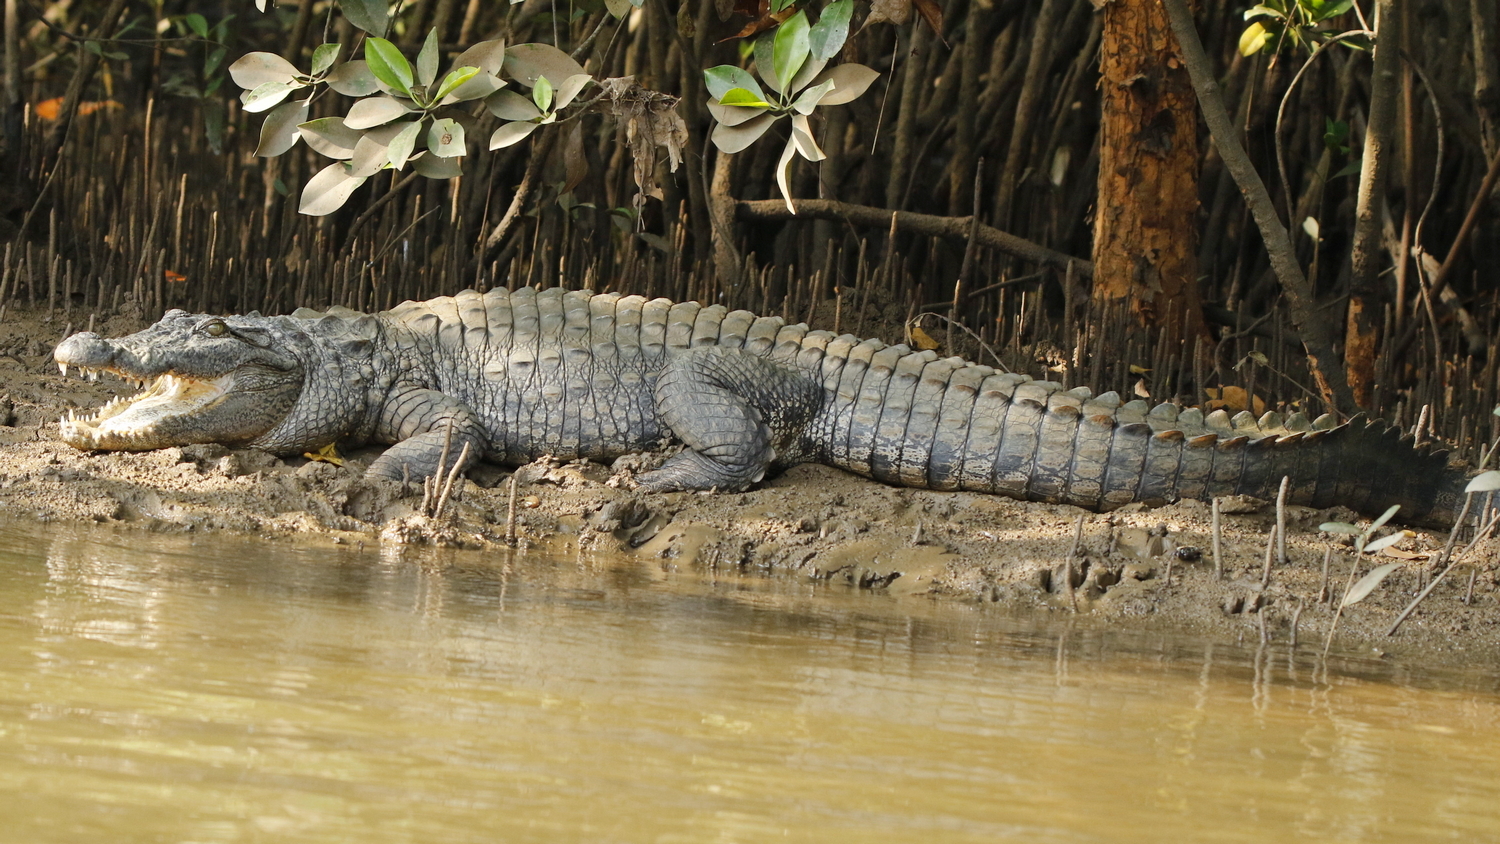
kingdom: Animalia
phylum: Chordata
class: Crocodylia
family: Crocodylidae
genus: Crocodylus
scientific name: Crocodylus palustris
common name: Mugger crocodile
